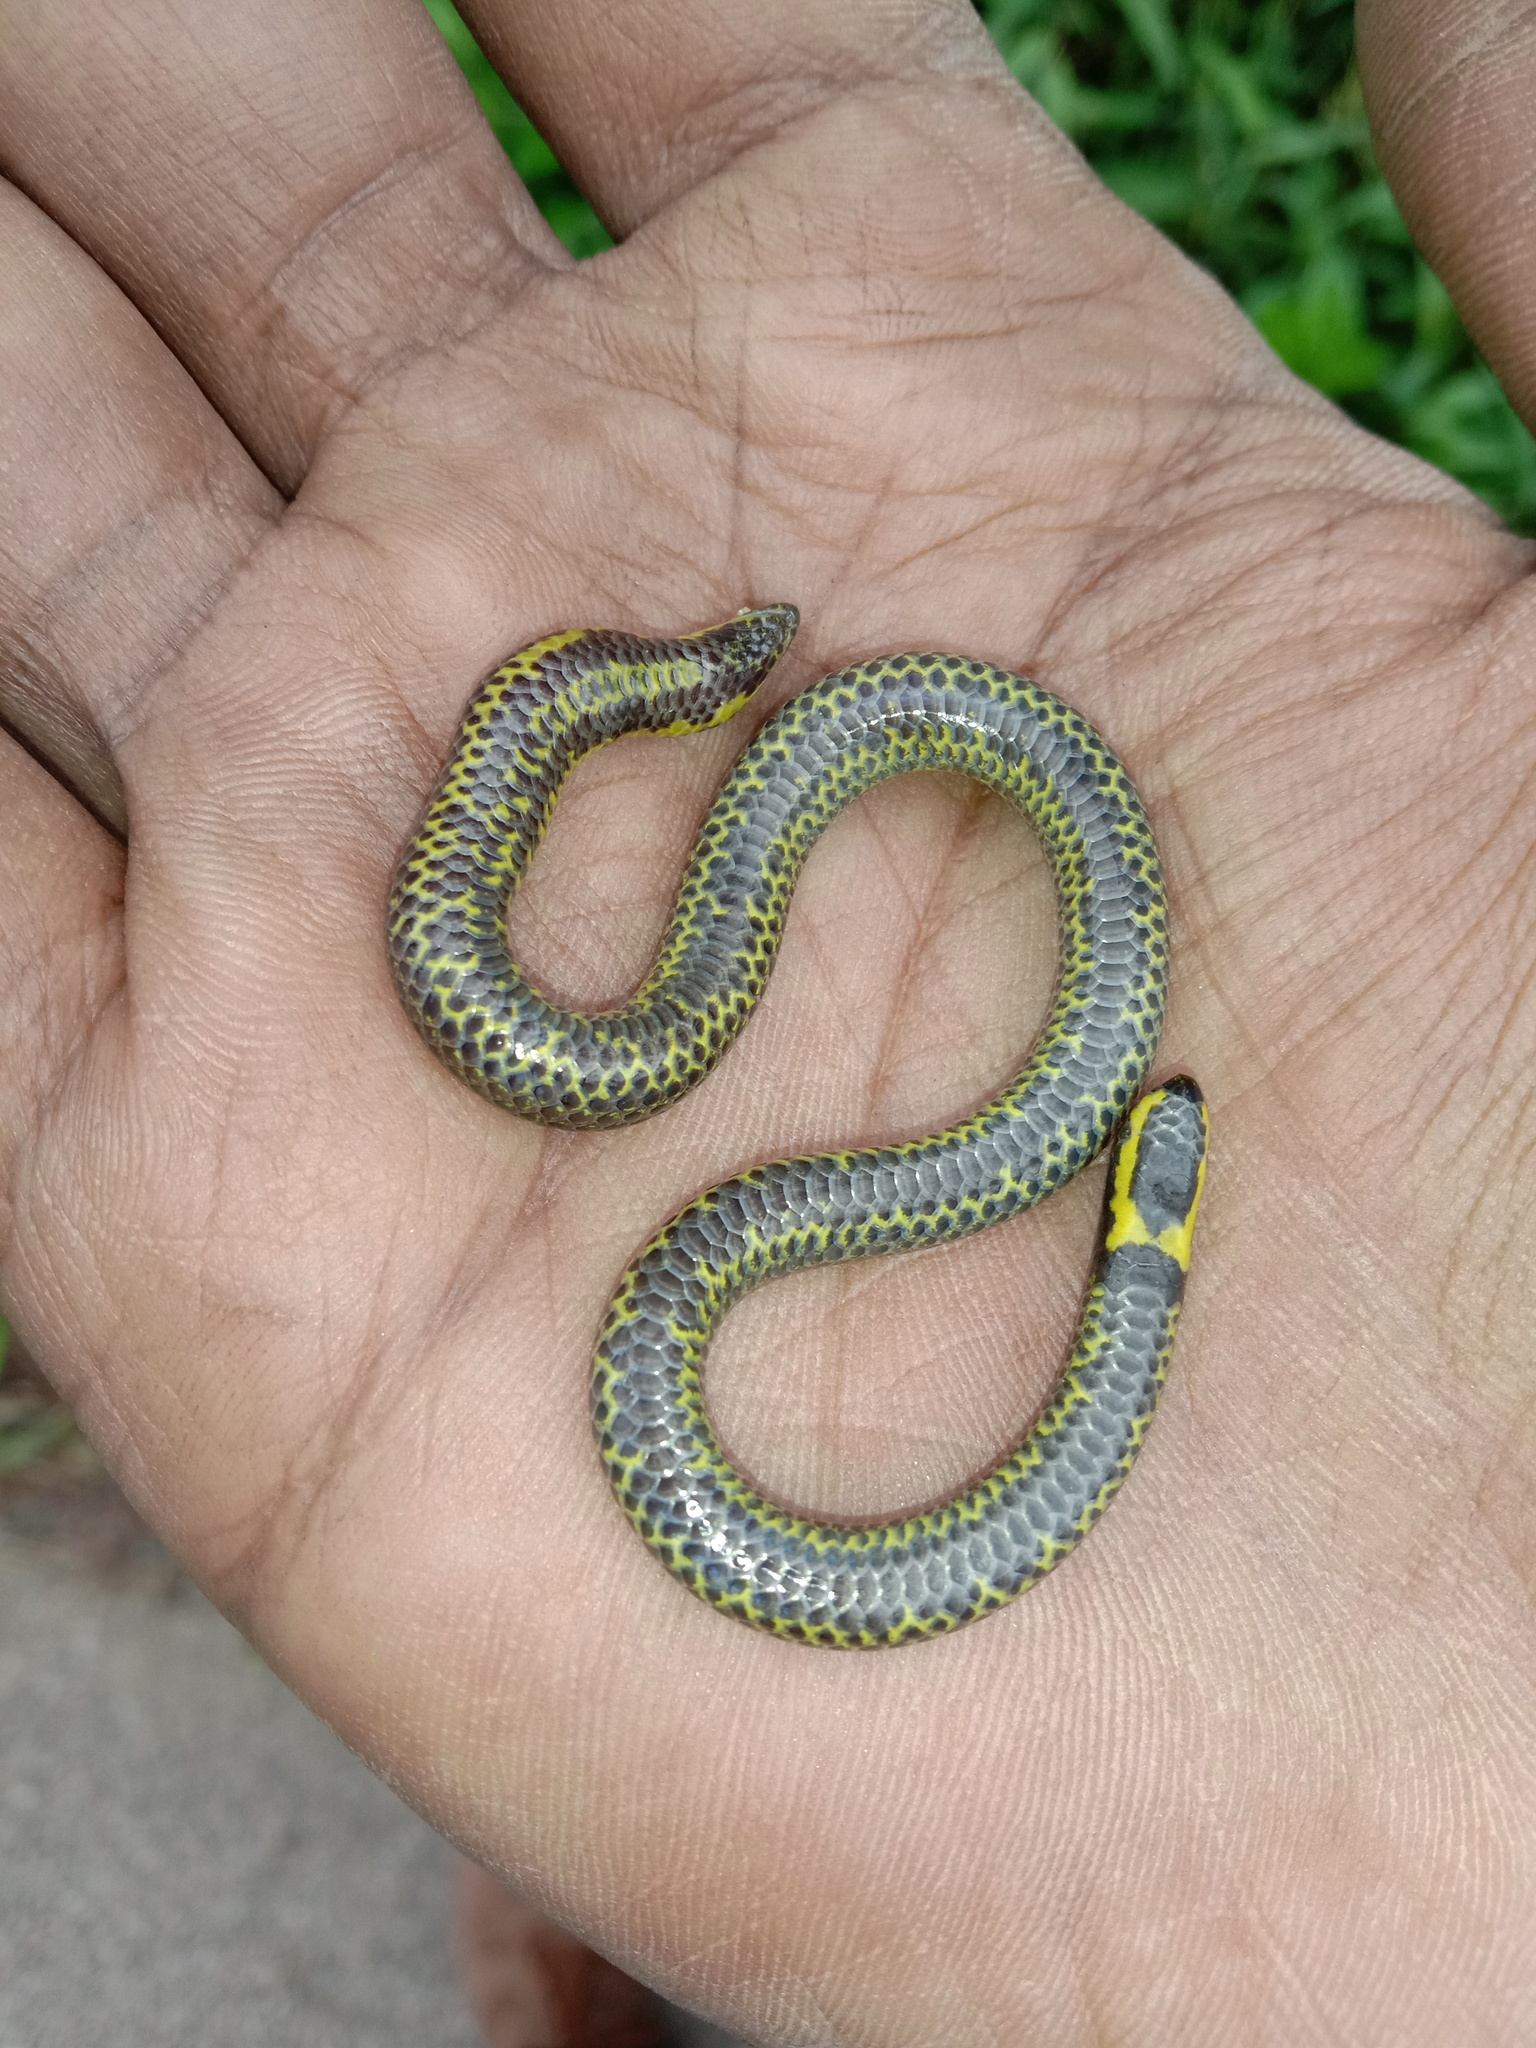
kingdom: Animalia
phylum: Chordata
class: Squamata
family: Uropeltidae
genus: Uropeltis
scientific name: Uropeltis ellioti
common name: Elliot's earth snake
